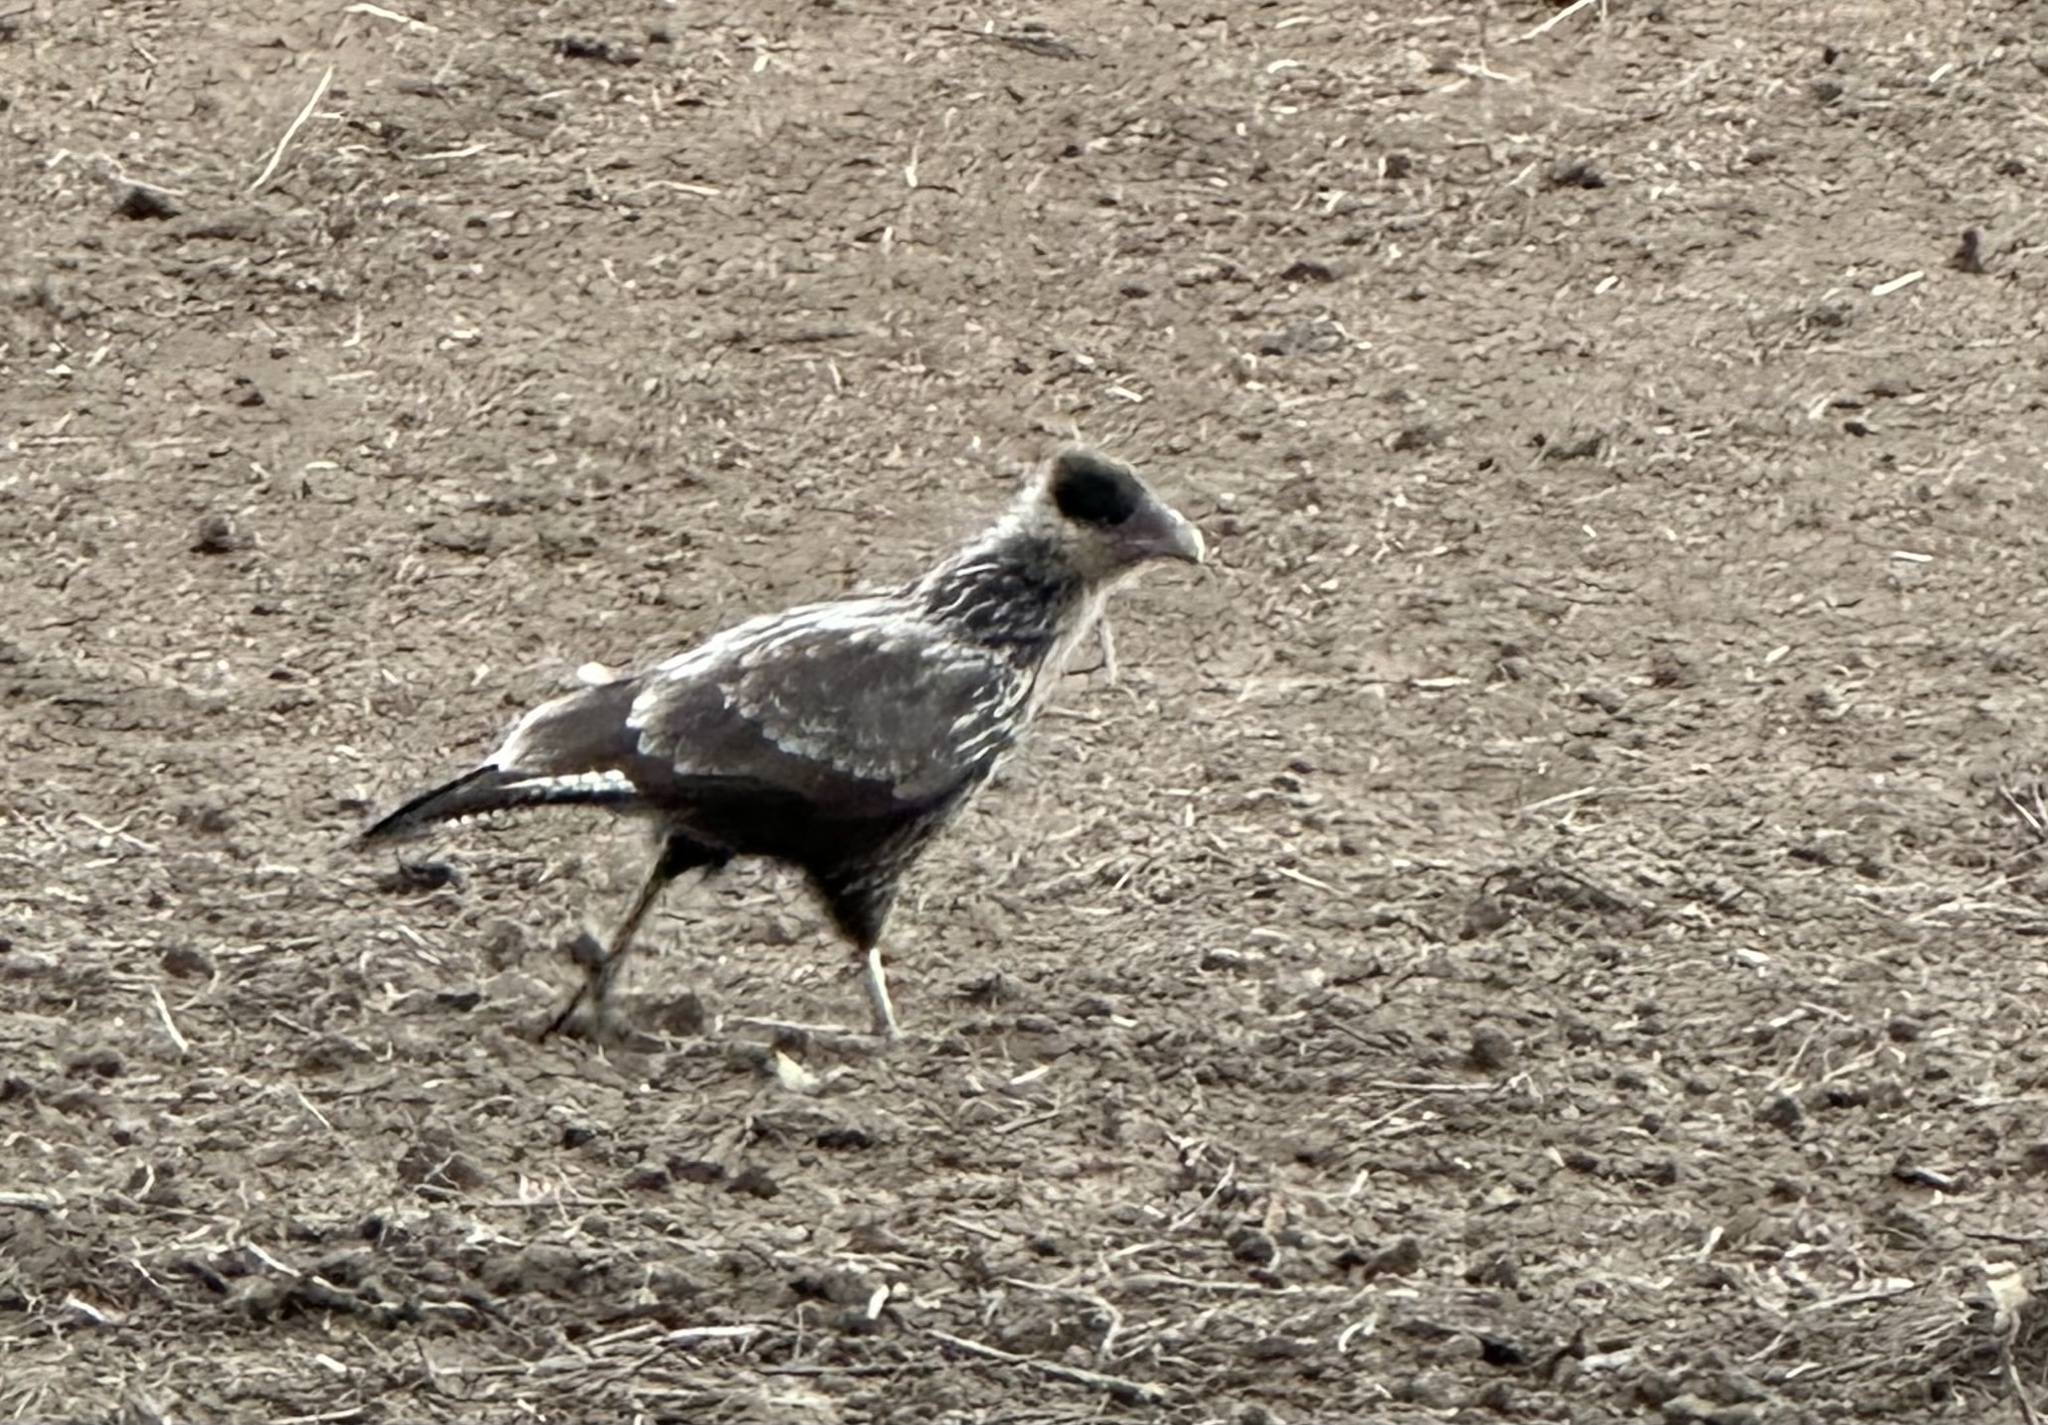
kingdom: Animalia
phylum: Chordata
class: Aves
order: Falconiformes
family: Falconidae
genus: Caracara
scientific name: Caracara plancus
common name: Southern caracara
